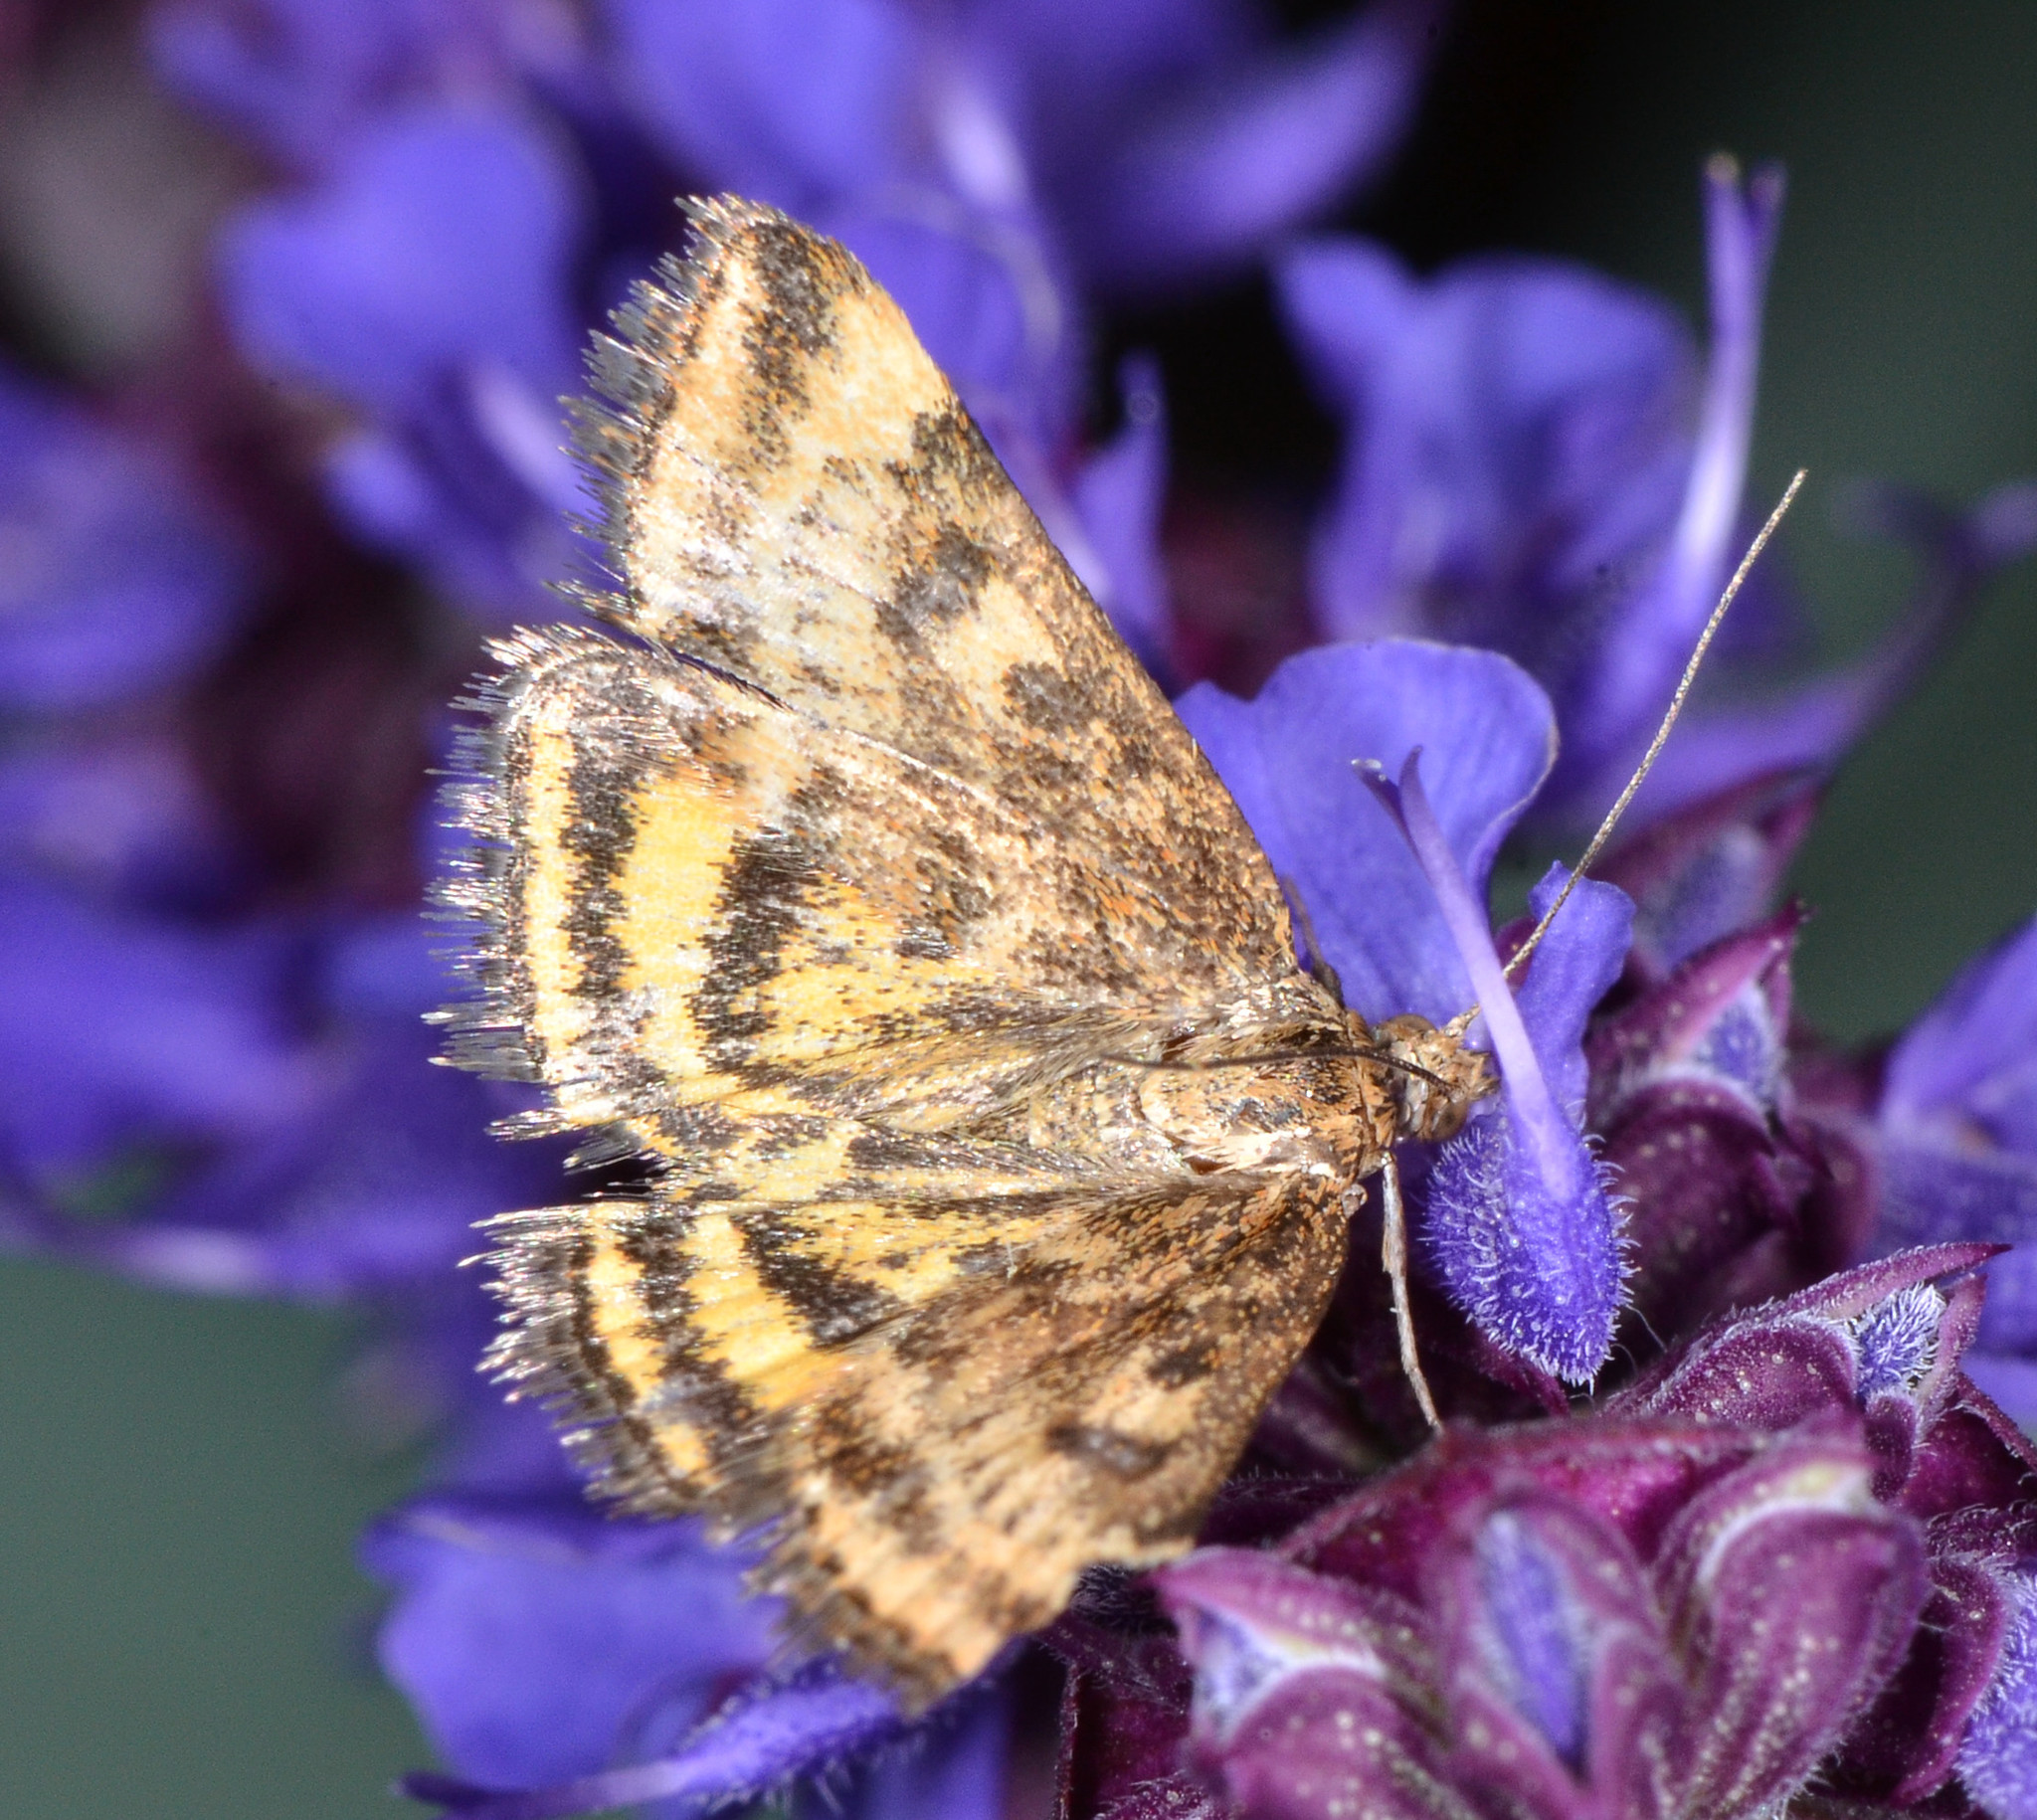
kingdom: Animalia
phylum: Arthropoda
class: Insecta
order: Lepidoptera
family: Crambidae
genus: Pyrausta
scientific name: Pyrausta subsequalis
